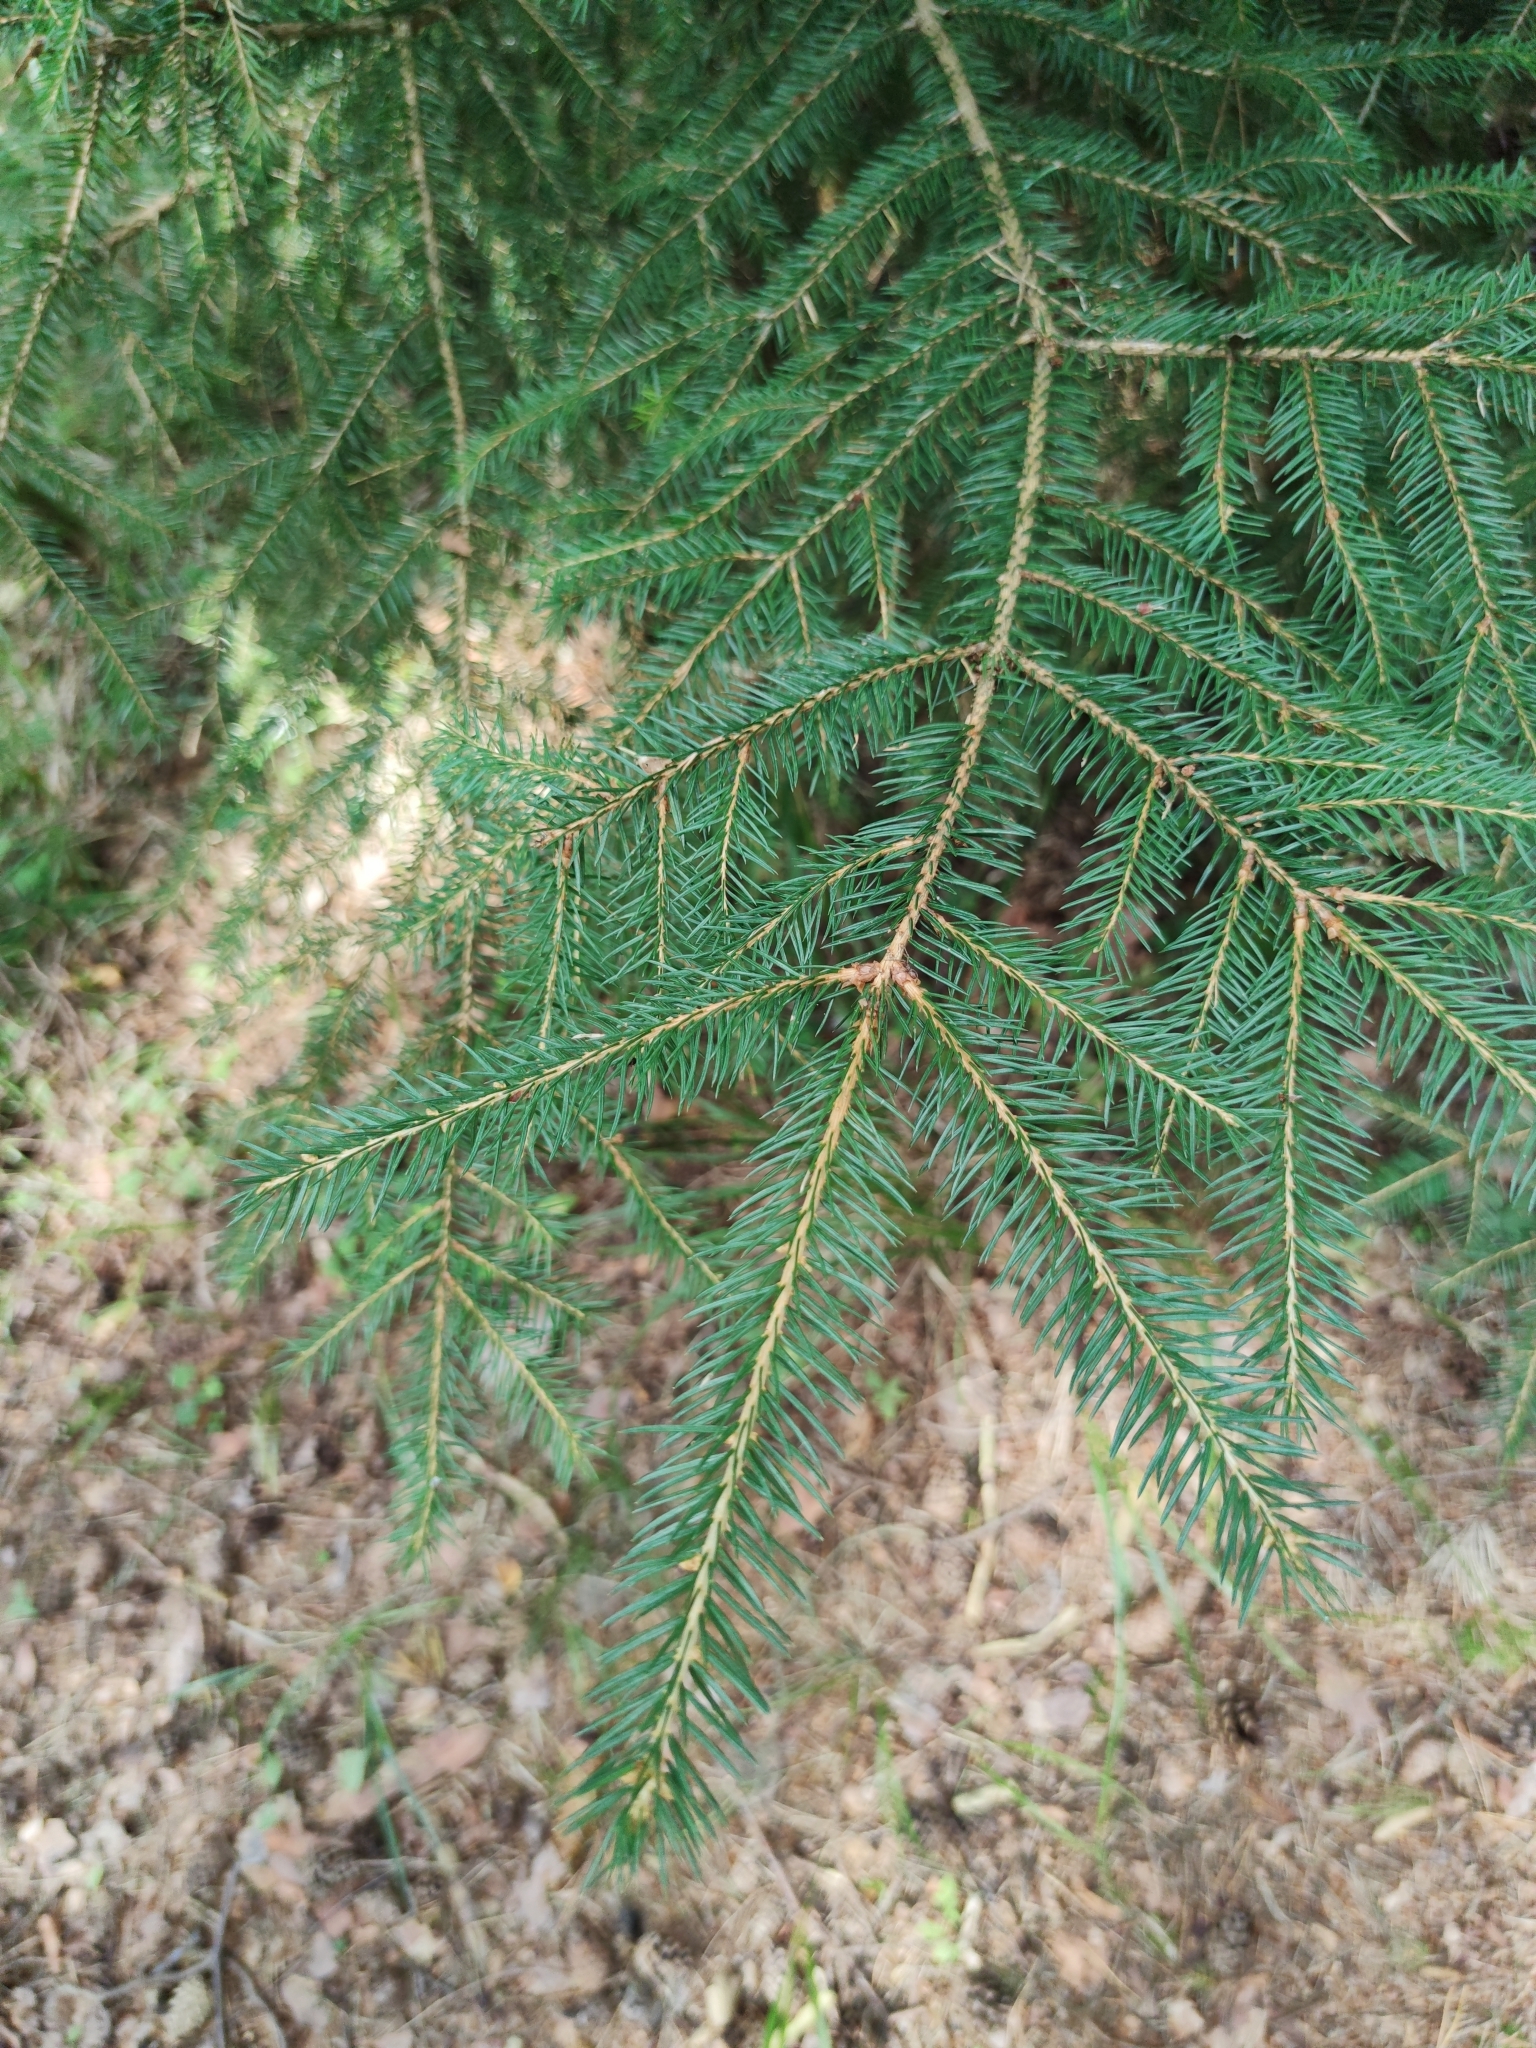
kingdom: Plantae
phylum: Tracheophyta
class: Pinopsida
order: Pinales
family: Pinaceae
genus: Picea
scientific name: Picea abies
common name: Norway spruce
